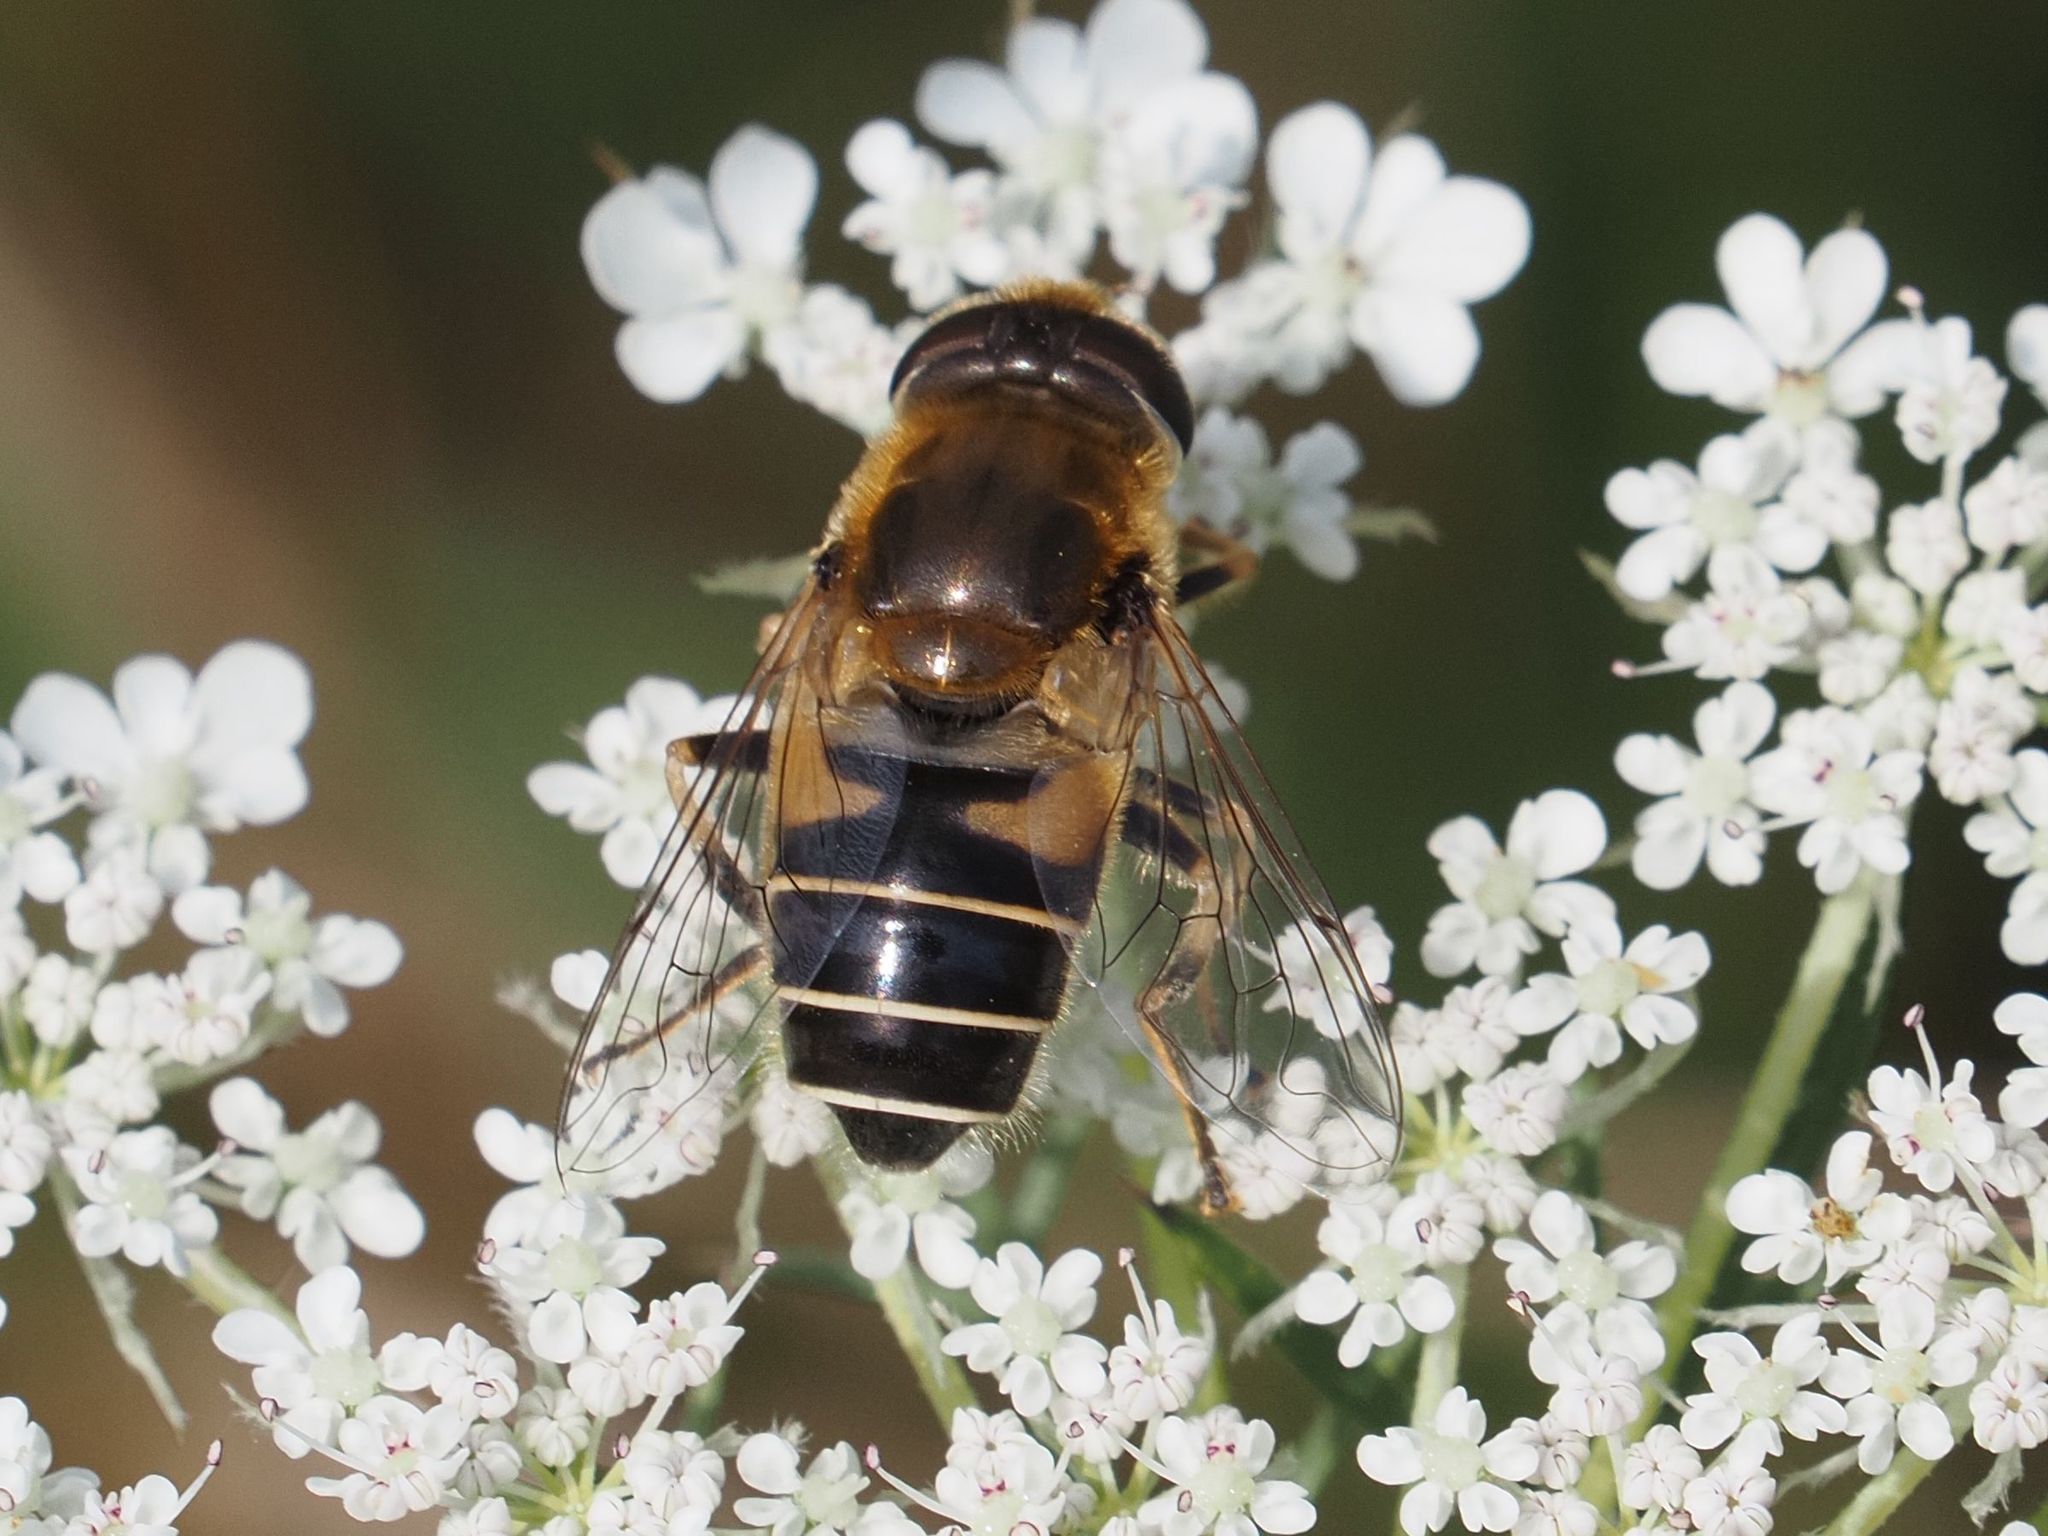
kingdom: Animalia
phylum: Arthropoda
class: Insecta
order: Diptera
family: Syrphidae
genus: Eristalis
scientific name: Eristalis nemorum
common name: Orange-spined drone fly
